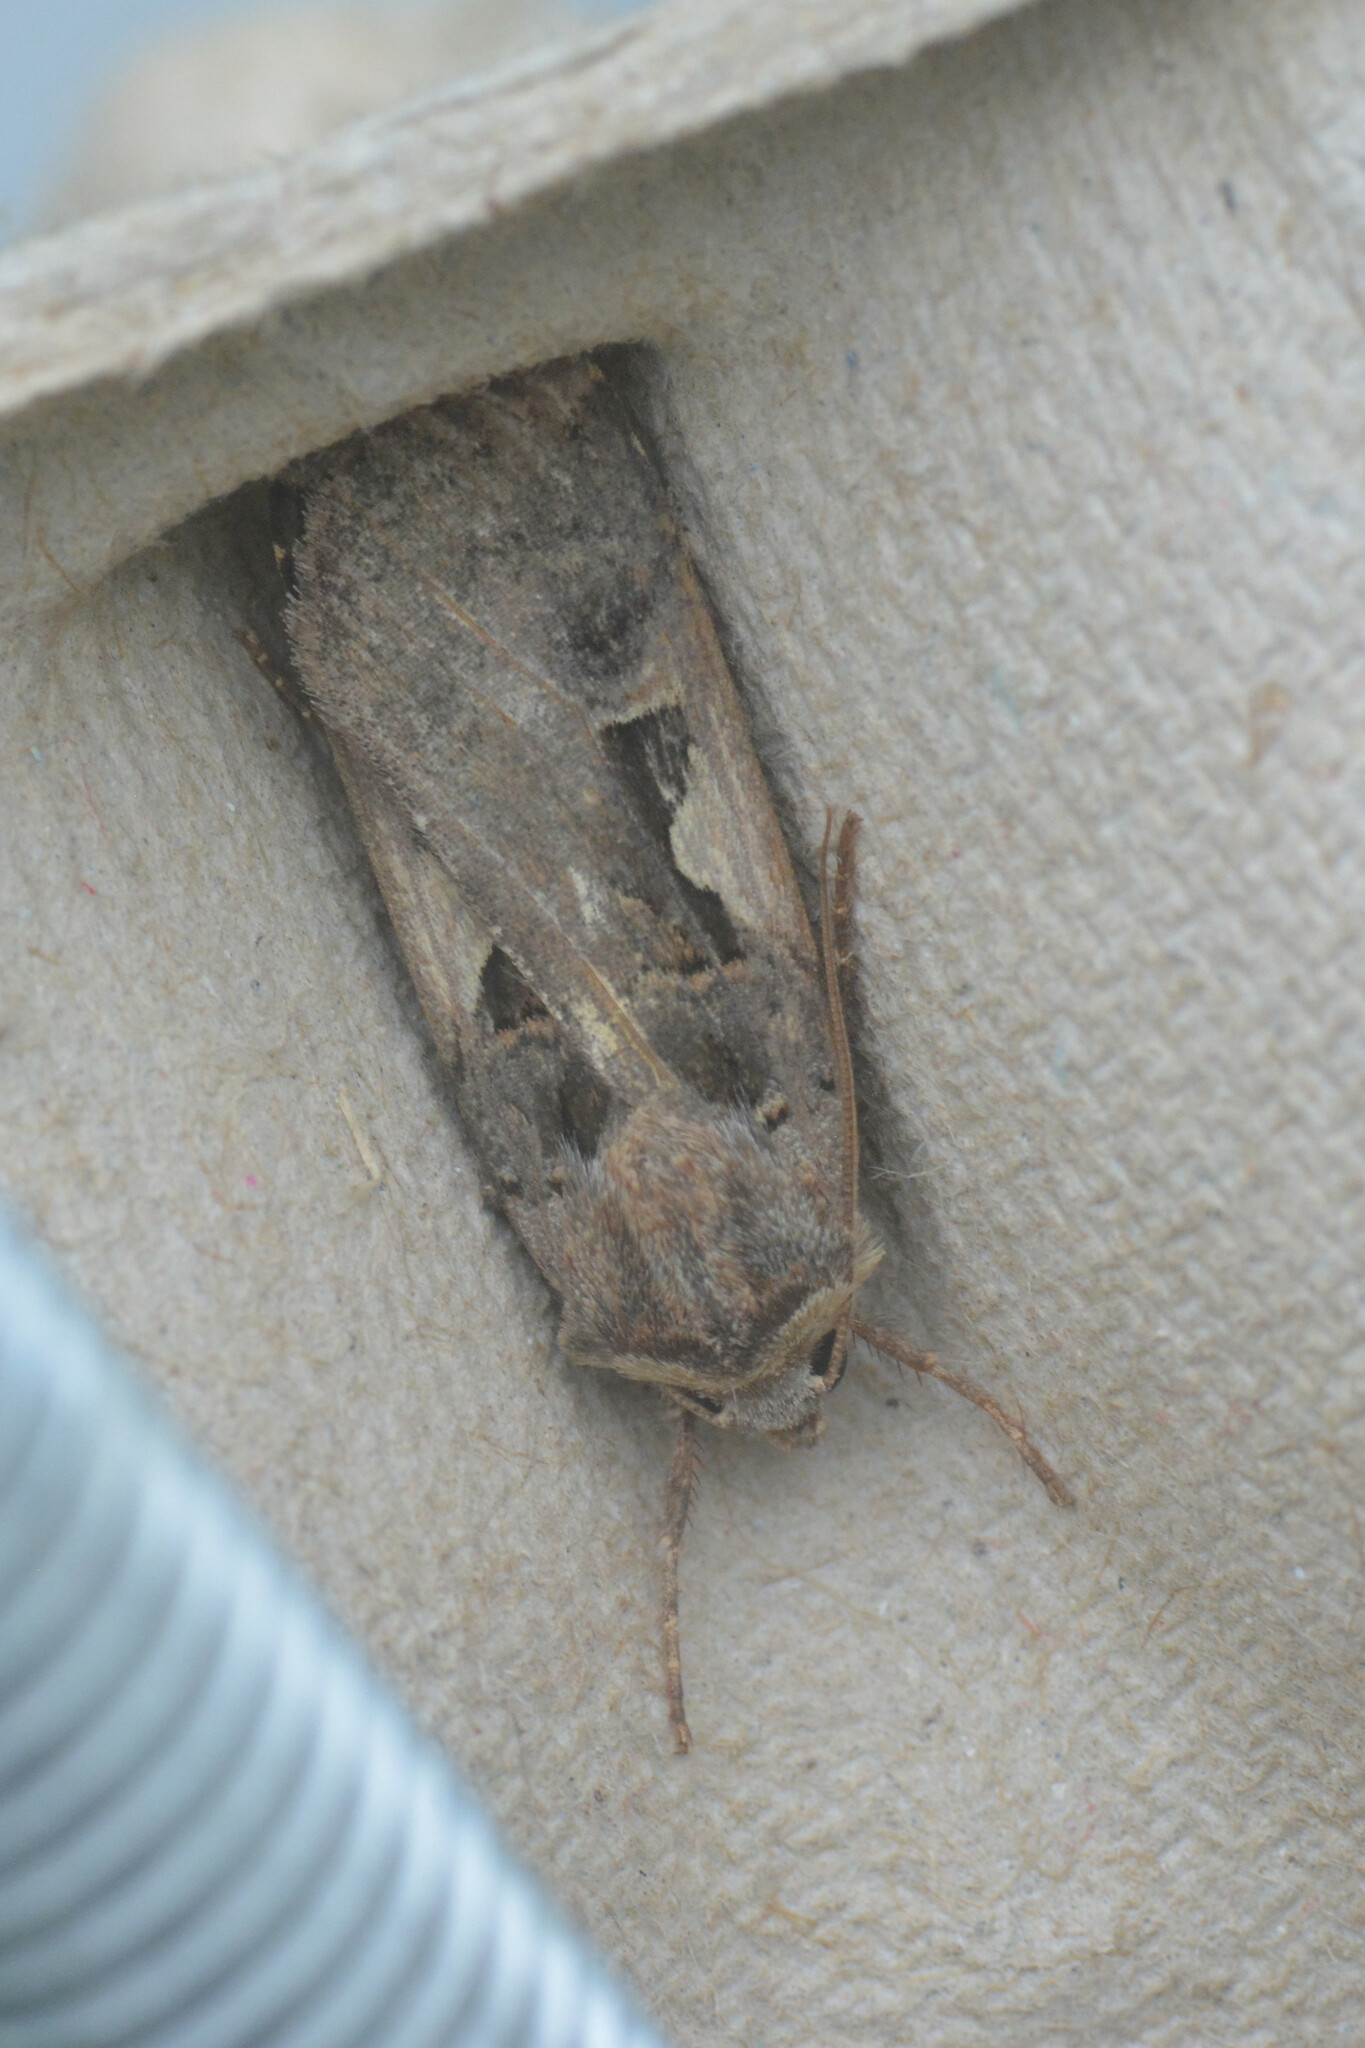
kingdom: Animalia
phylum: Arthropoda
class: Insecta
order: Lepidoptera
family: Noctuidae
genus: Xestia
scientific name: Xestia c-nigrum
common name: Setaceous hebrew character
